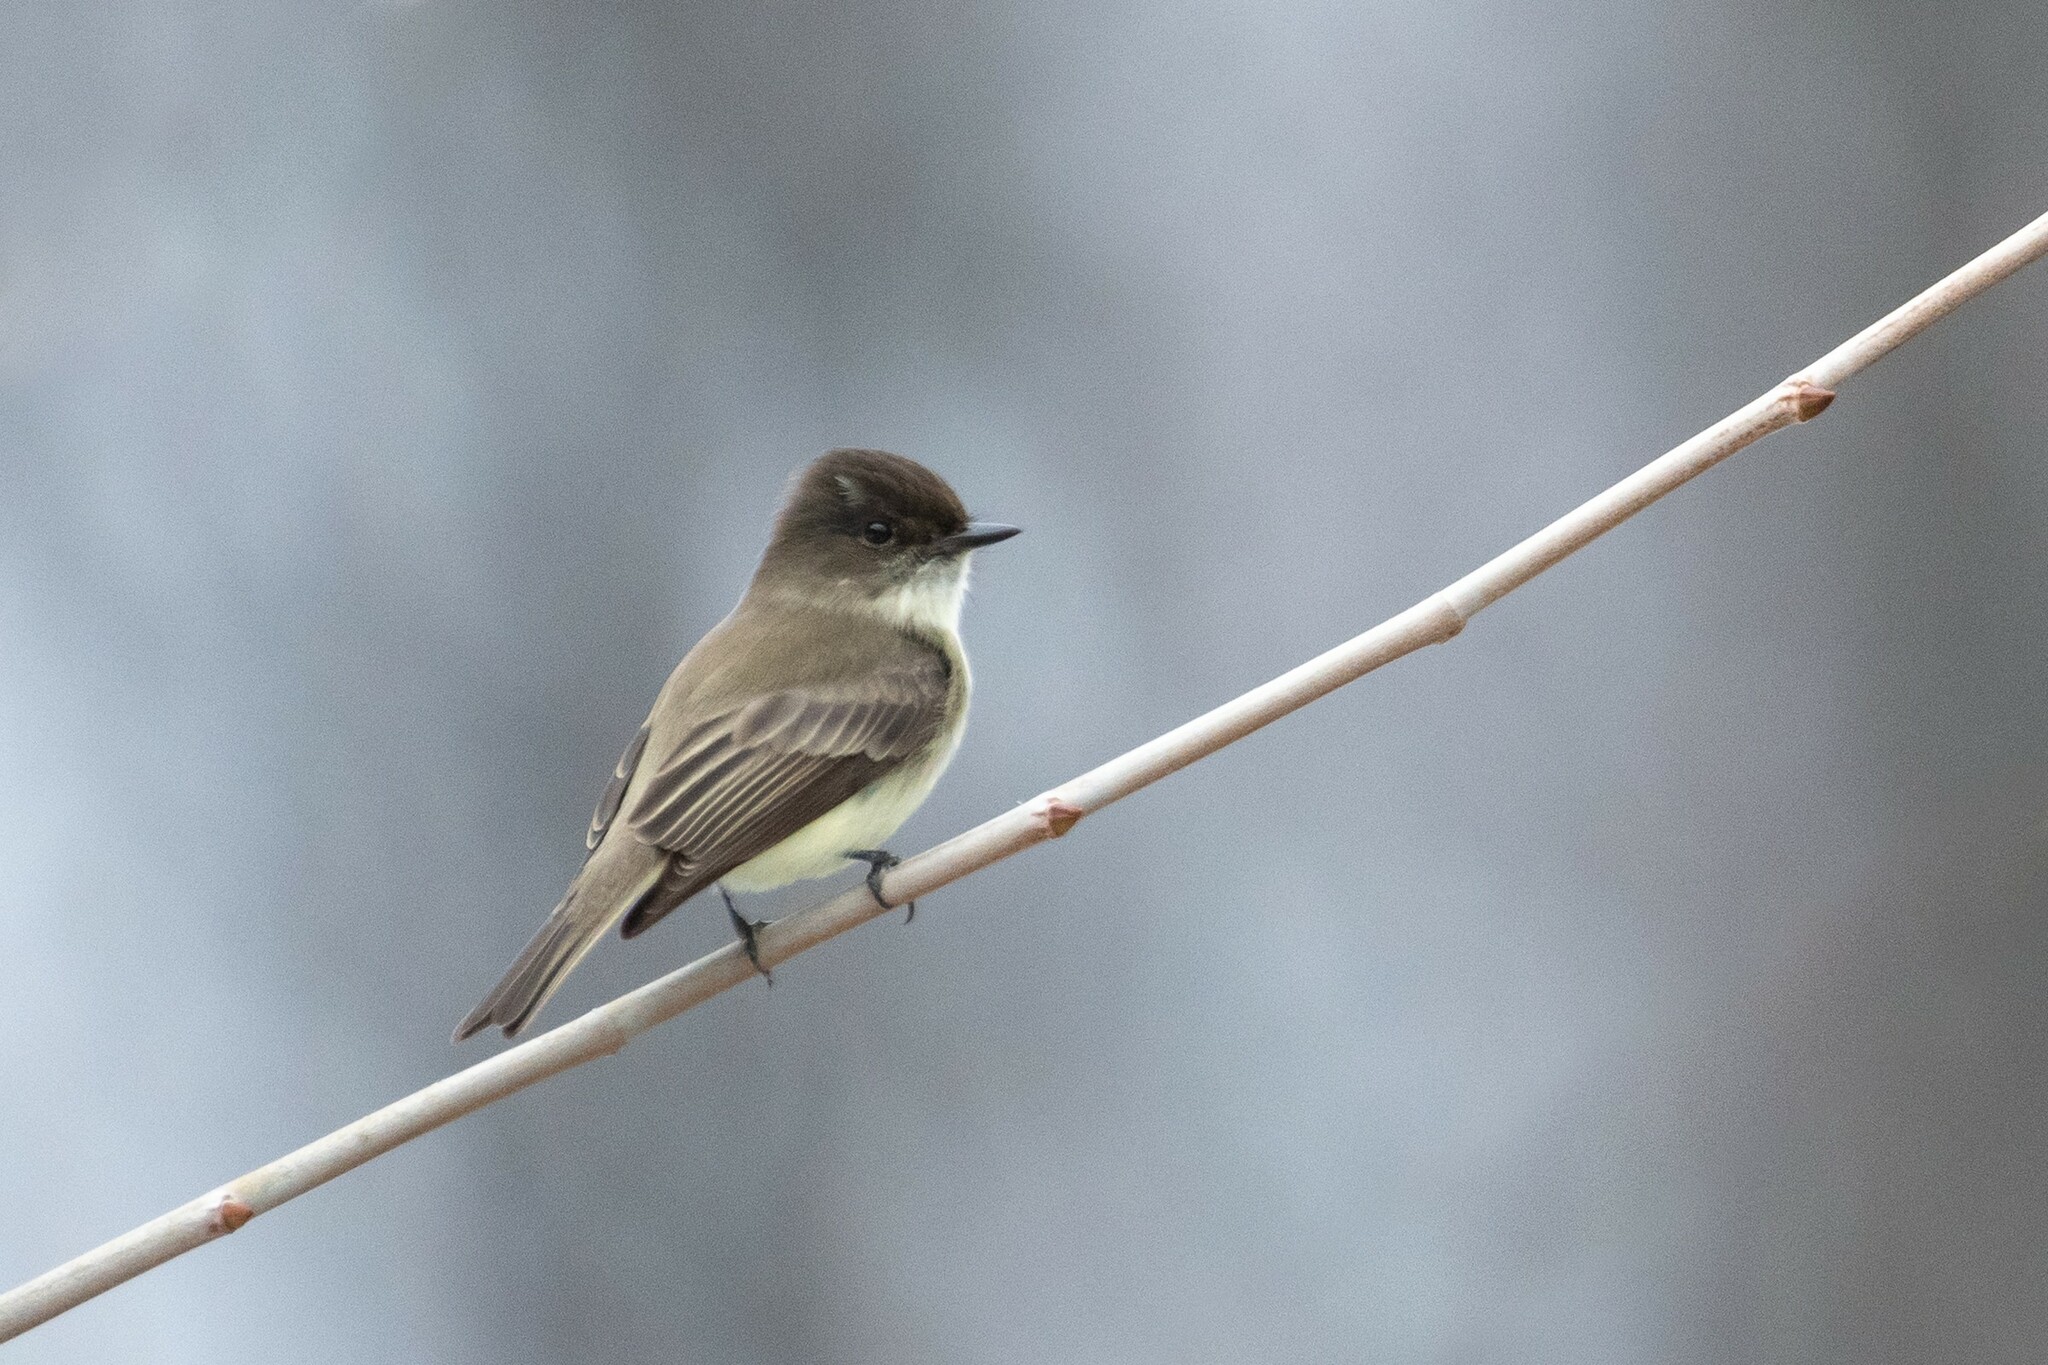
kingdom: Animalia
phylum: Chordata
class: Aves
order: Passeriformes
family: Tyrannidae
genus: Sayornis
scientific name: Sayornis phoebe
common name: Eastern phoebe
